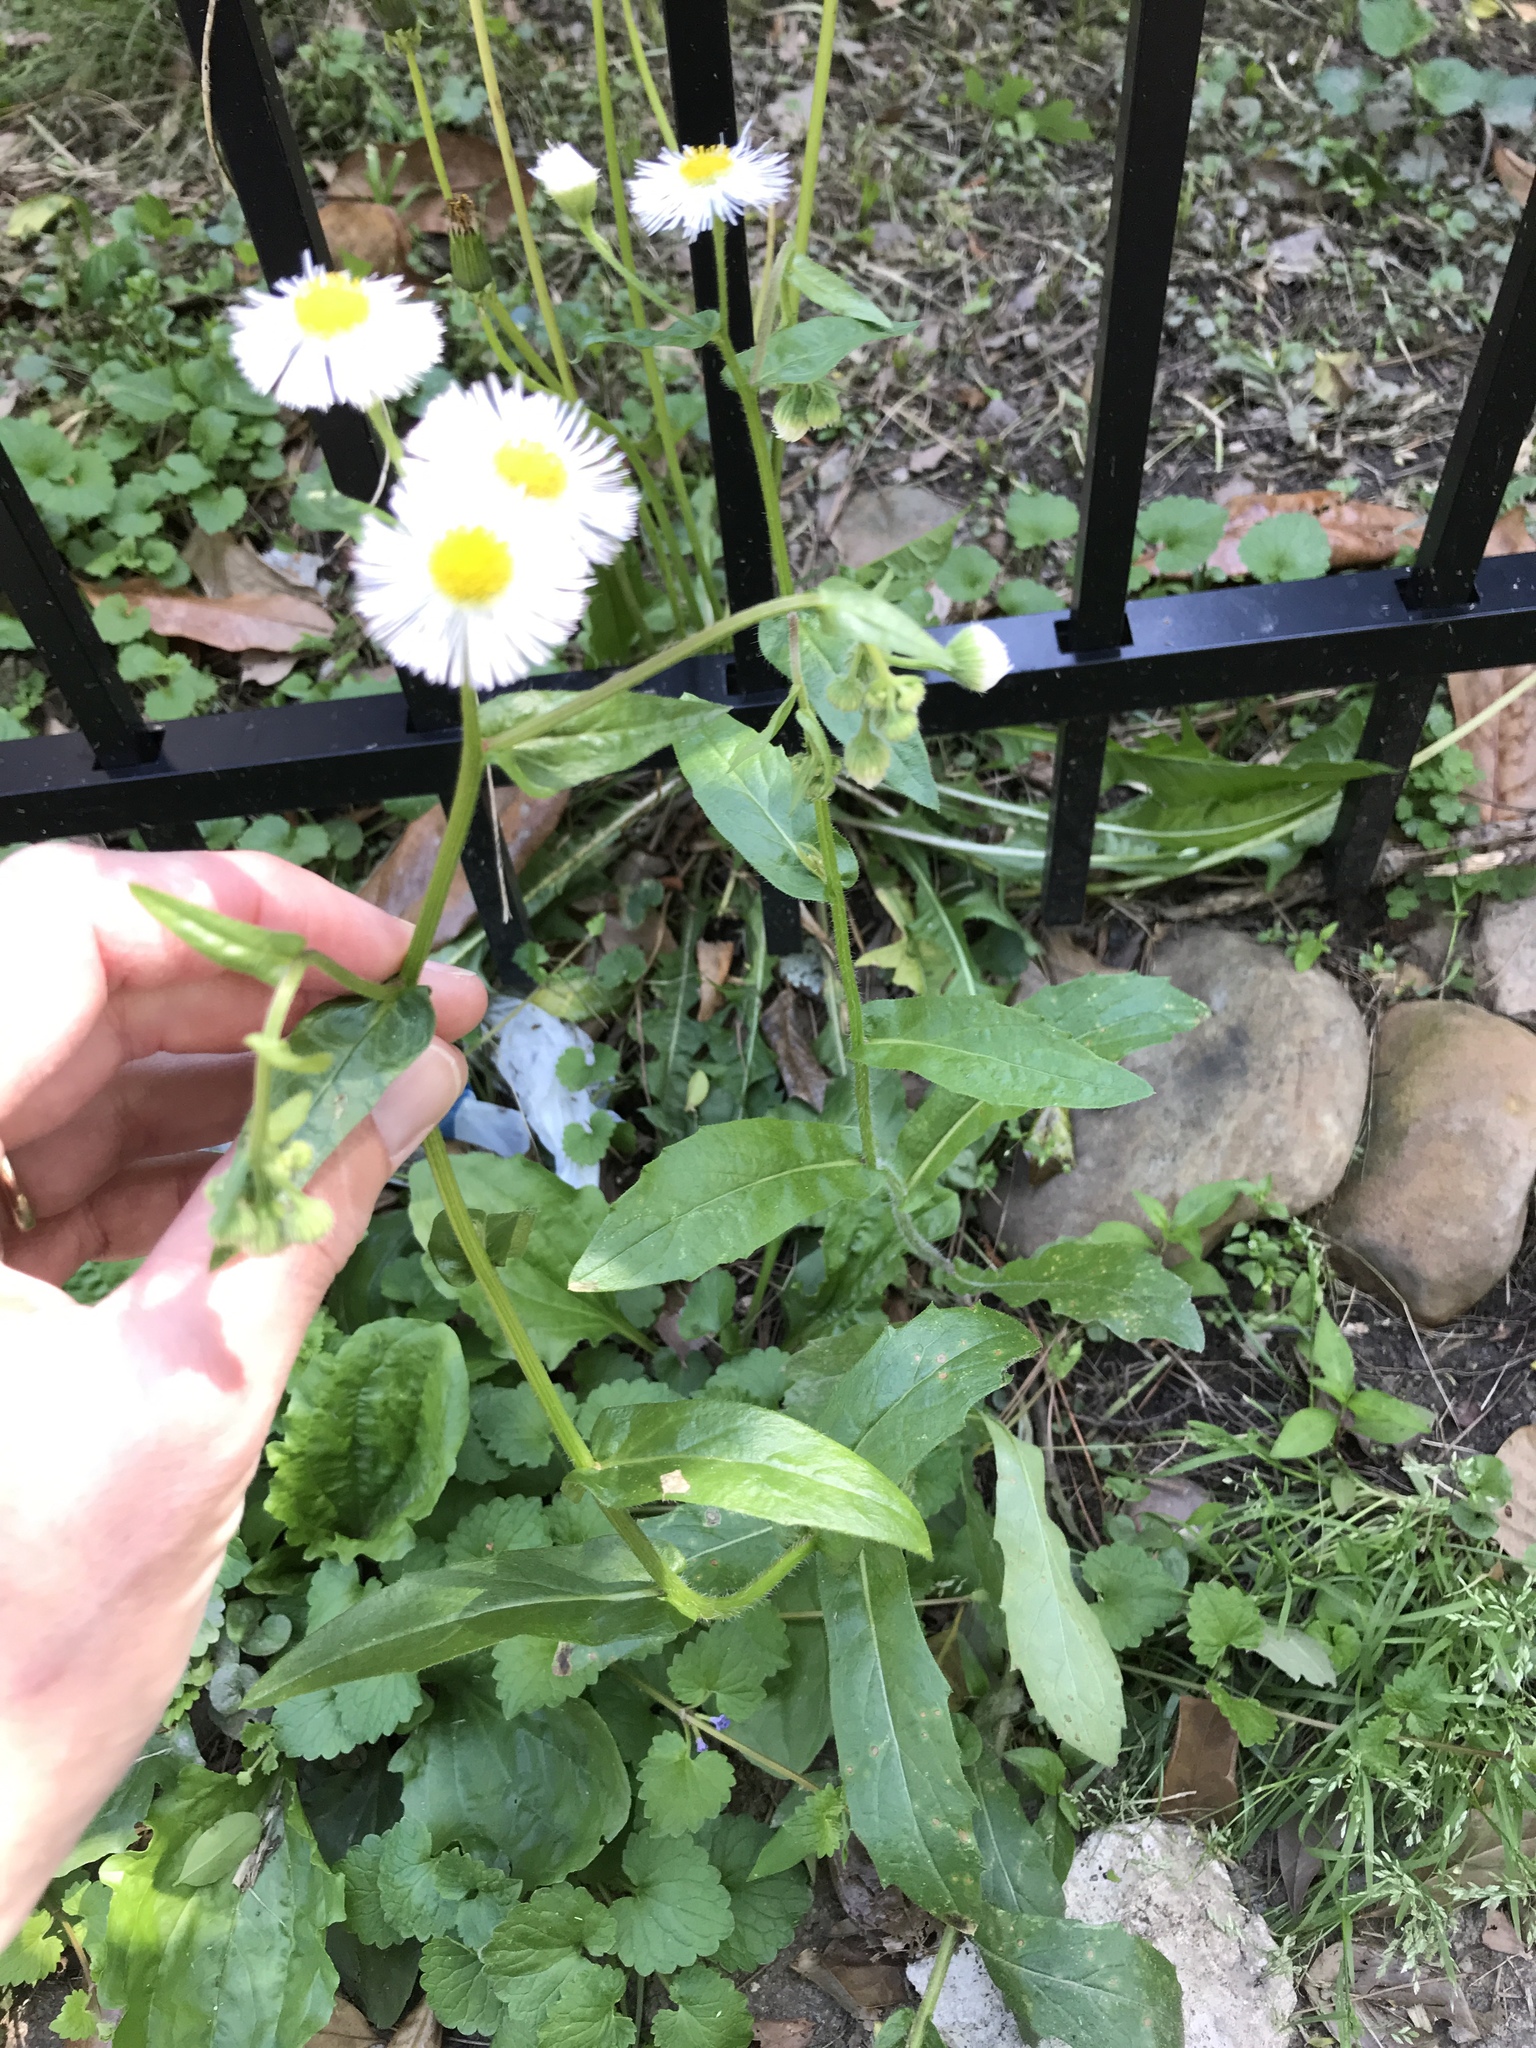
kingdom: Plantae
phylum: Tracheophyta
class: Magnoliopsida
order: Asterales
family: Asteraceae
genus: Erigeron
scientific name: Erigeron philadelphicus
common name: Robin's-plantain
